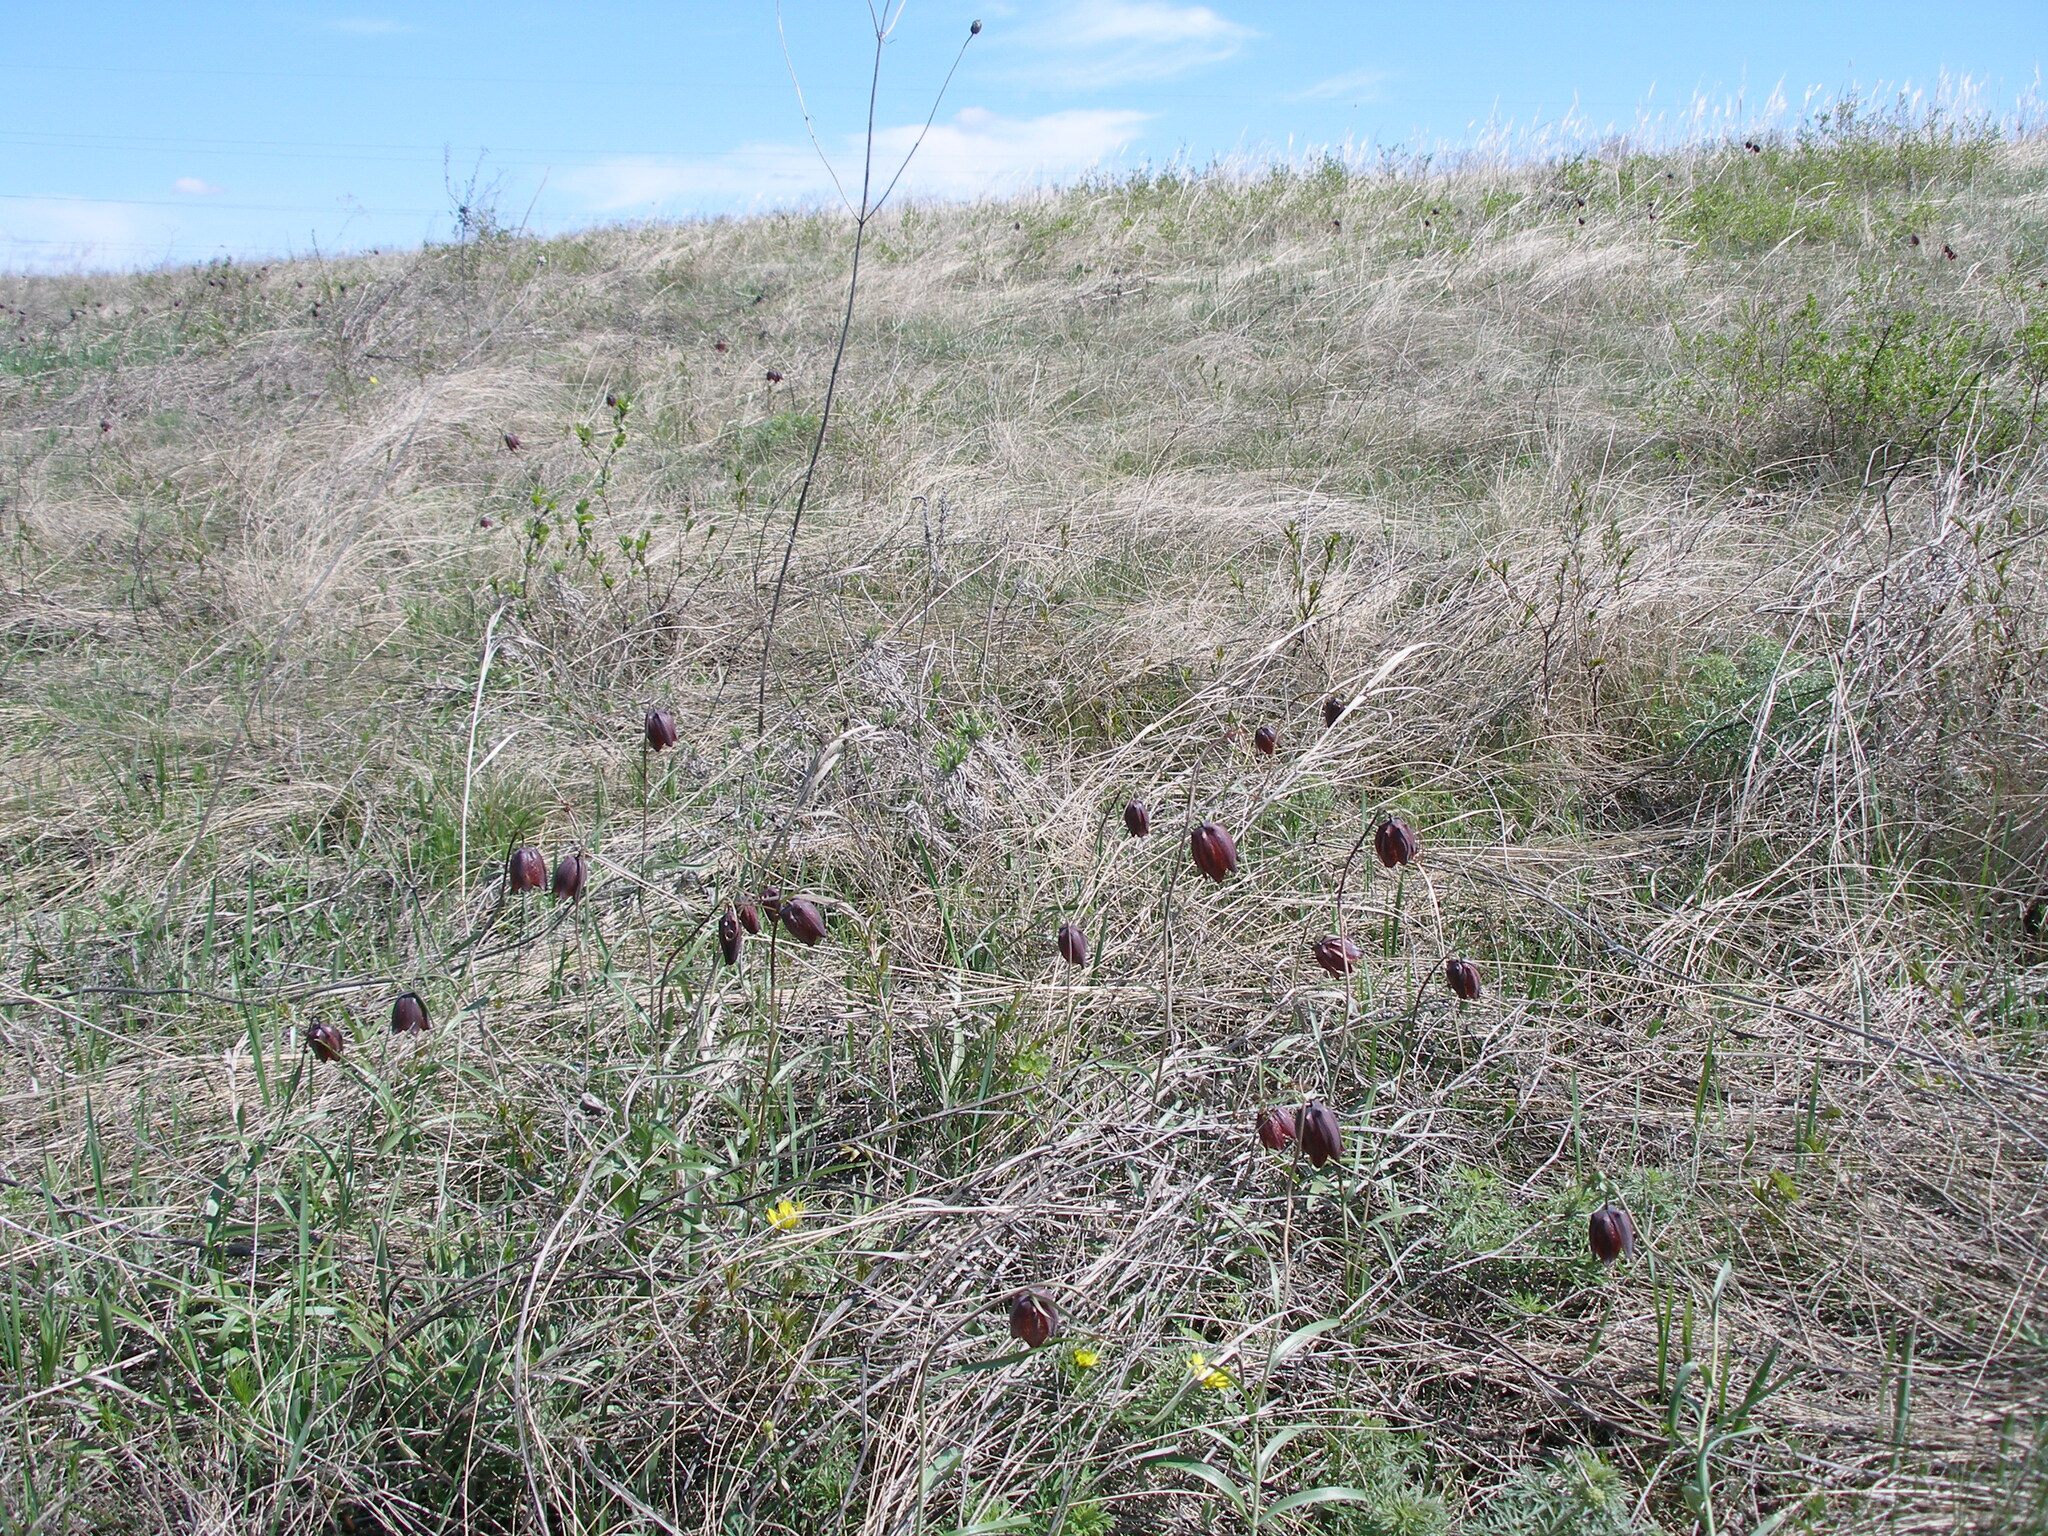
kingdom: Plantae
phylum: Tracheophyta
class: Liliopsida
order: Liliales
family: Liliaceae
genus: Fritillaria
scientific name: Fritillaria ruthenica
